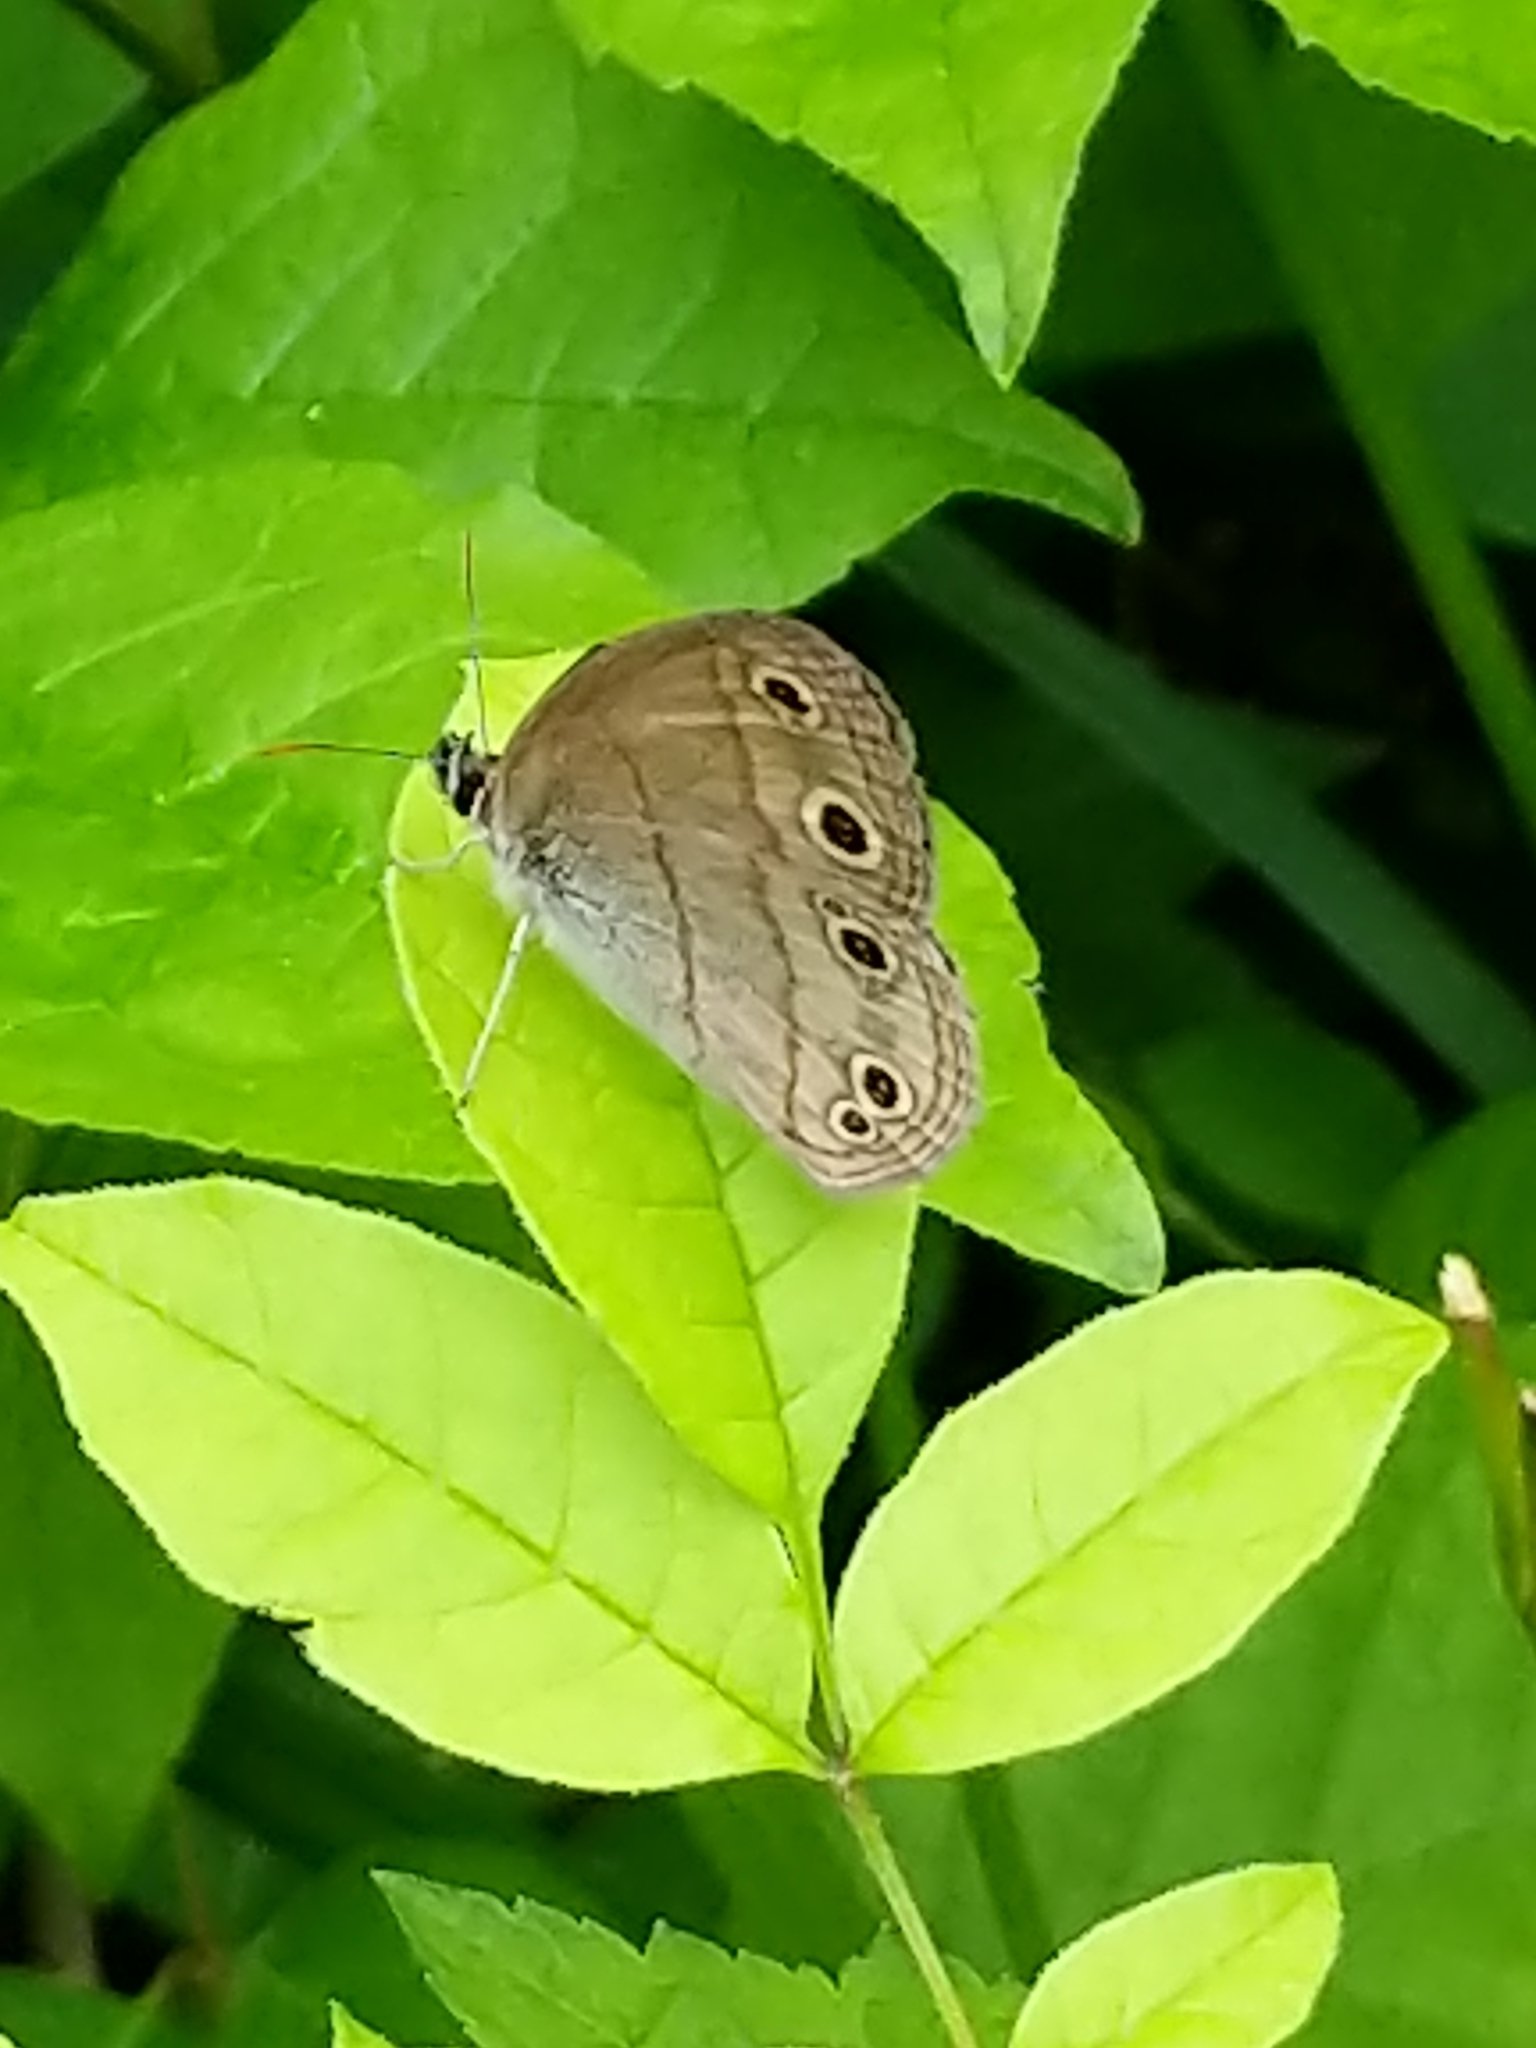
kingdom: Animalia
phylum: Arthropoda
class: Insecta
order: Lepidoptera
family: Nymphalidae
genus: Euptychia
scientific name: Euptychia cymela
